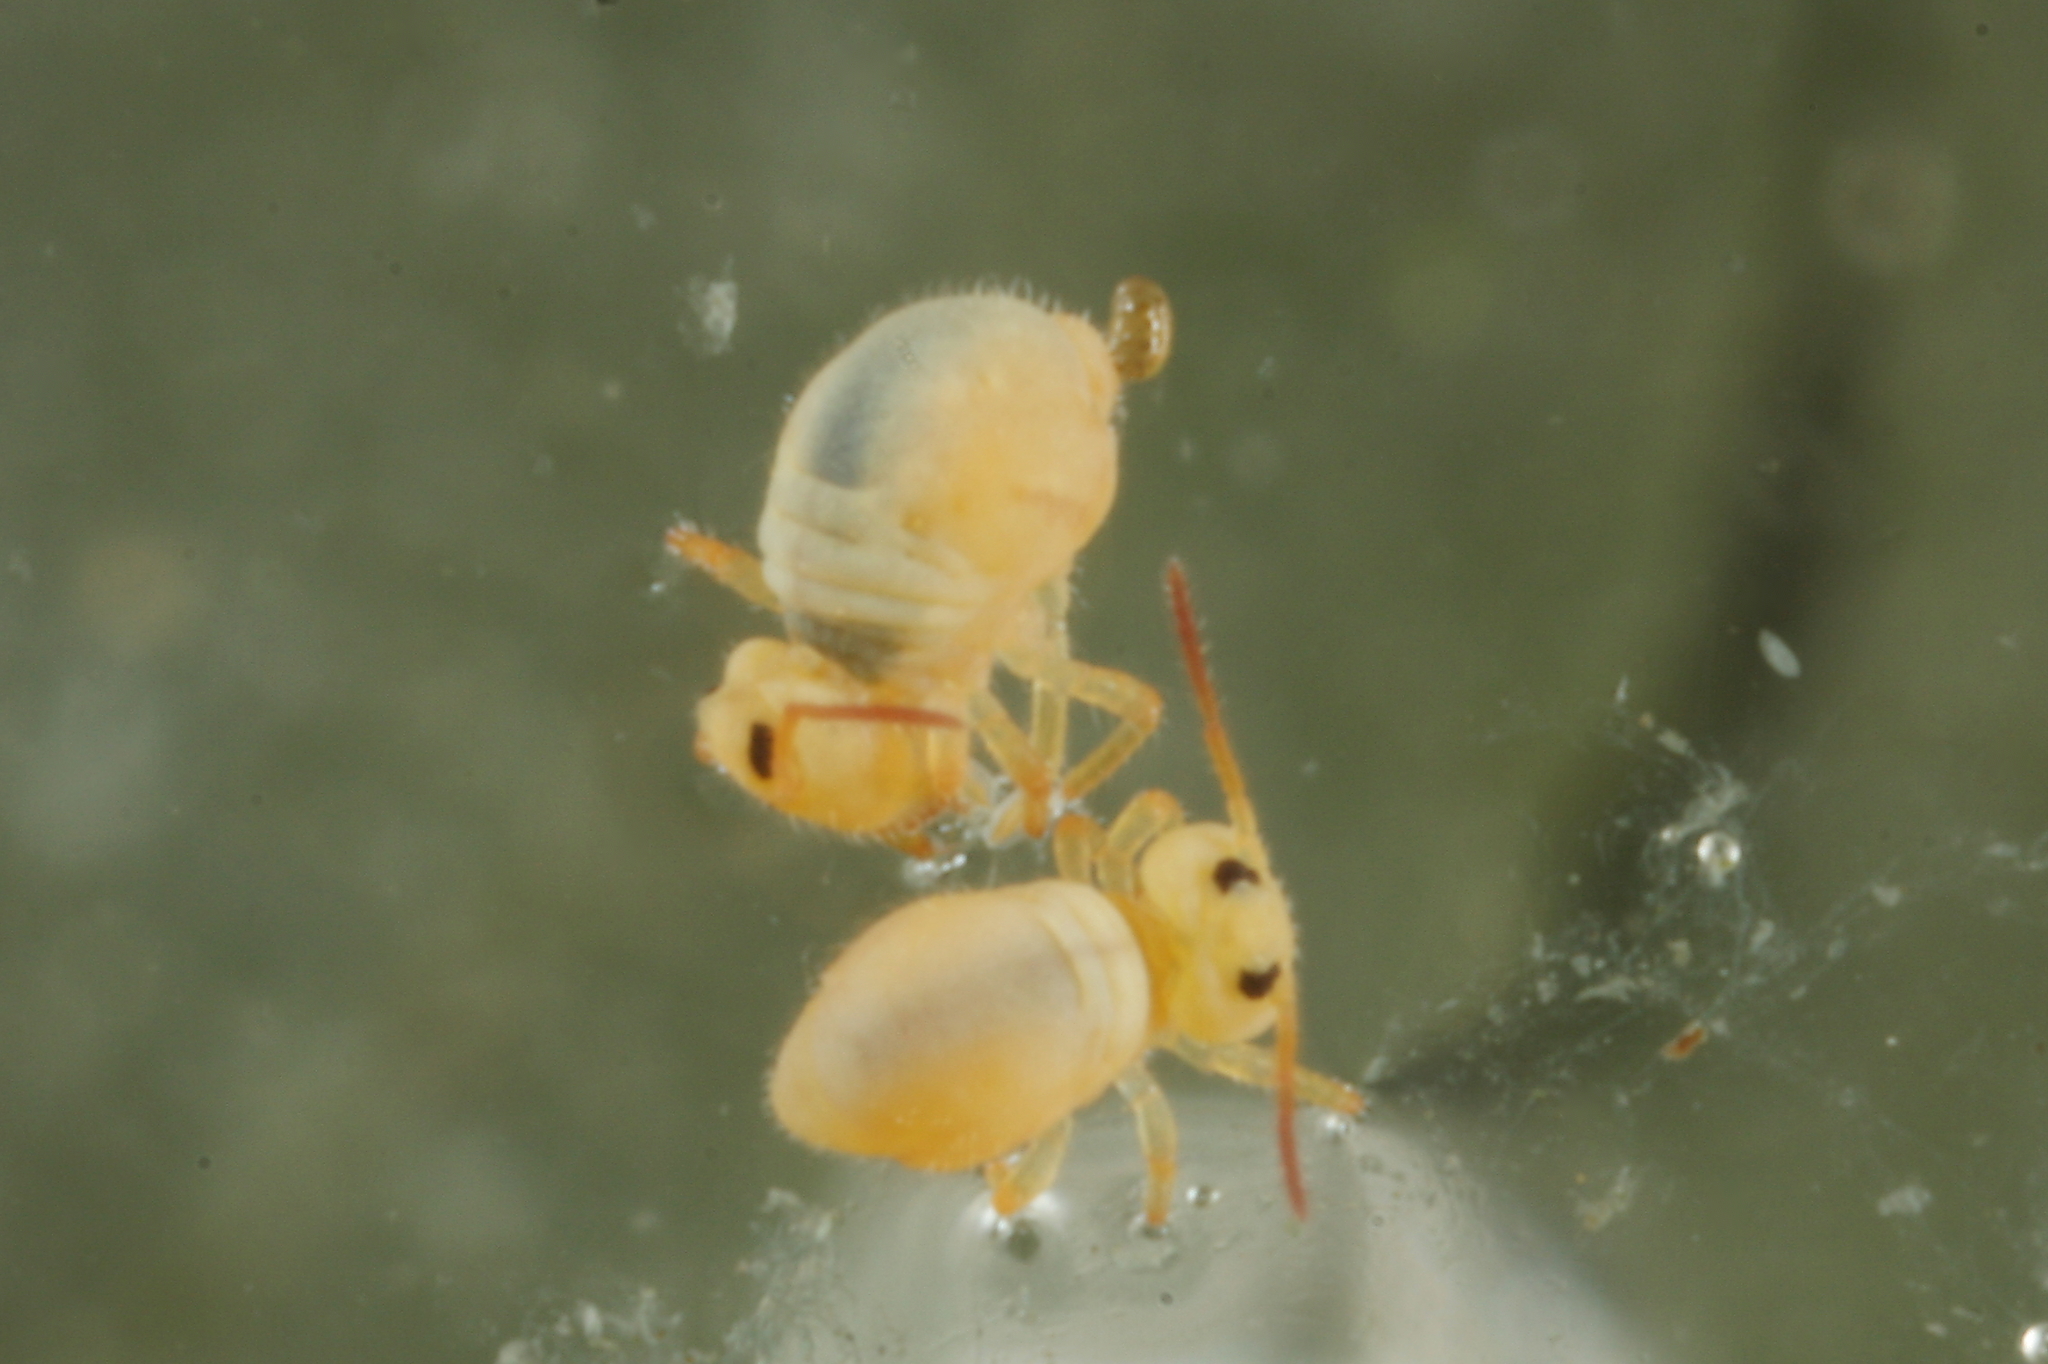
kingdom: Animalia
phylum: Arthropoda
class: Collembola
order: Symphypleona
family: Sminthurididae
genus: Sminthurides
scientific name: Sminthurides aquaticus
